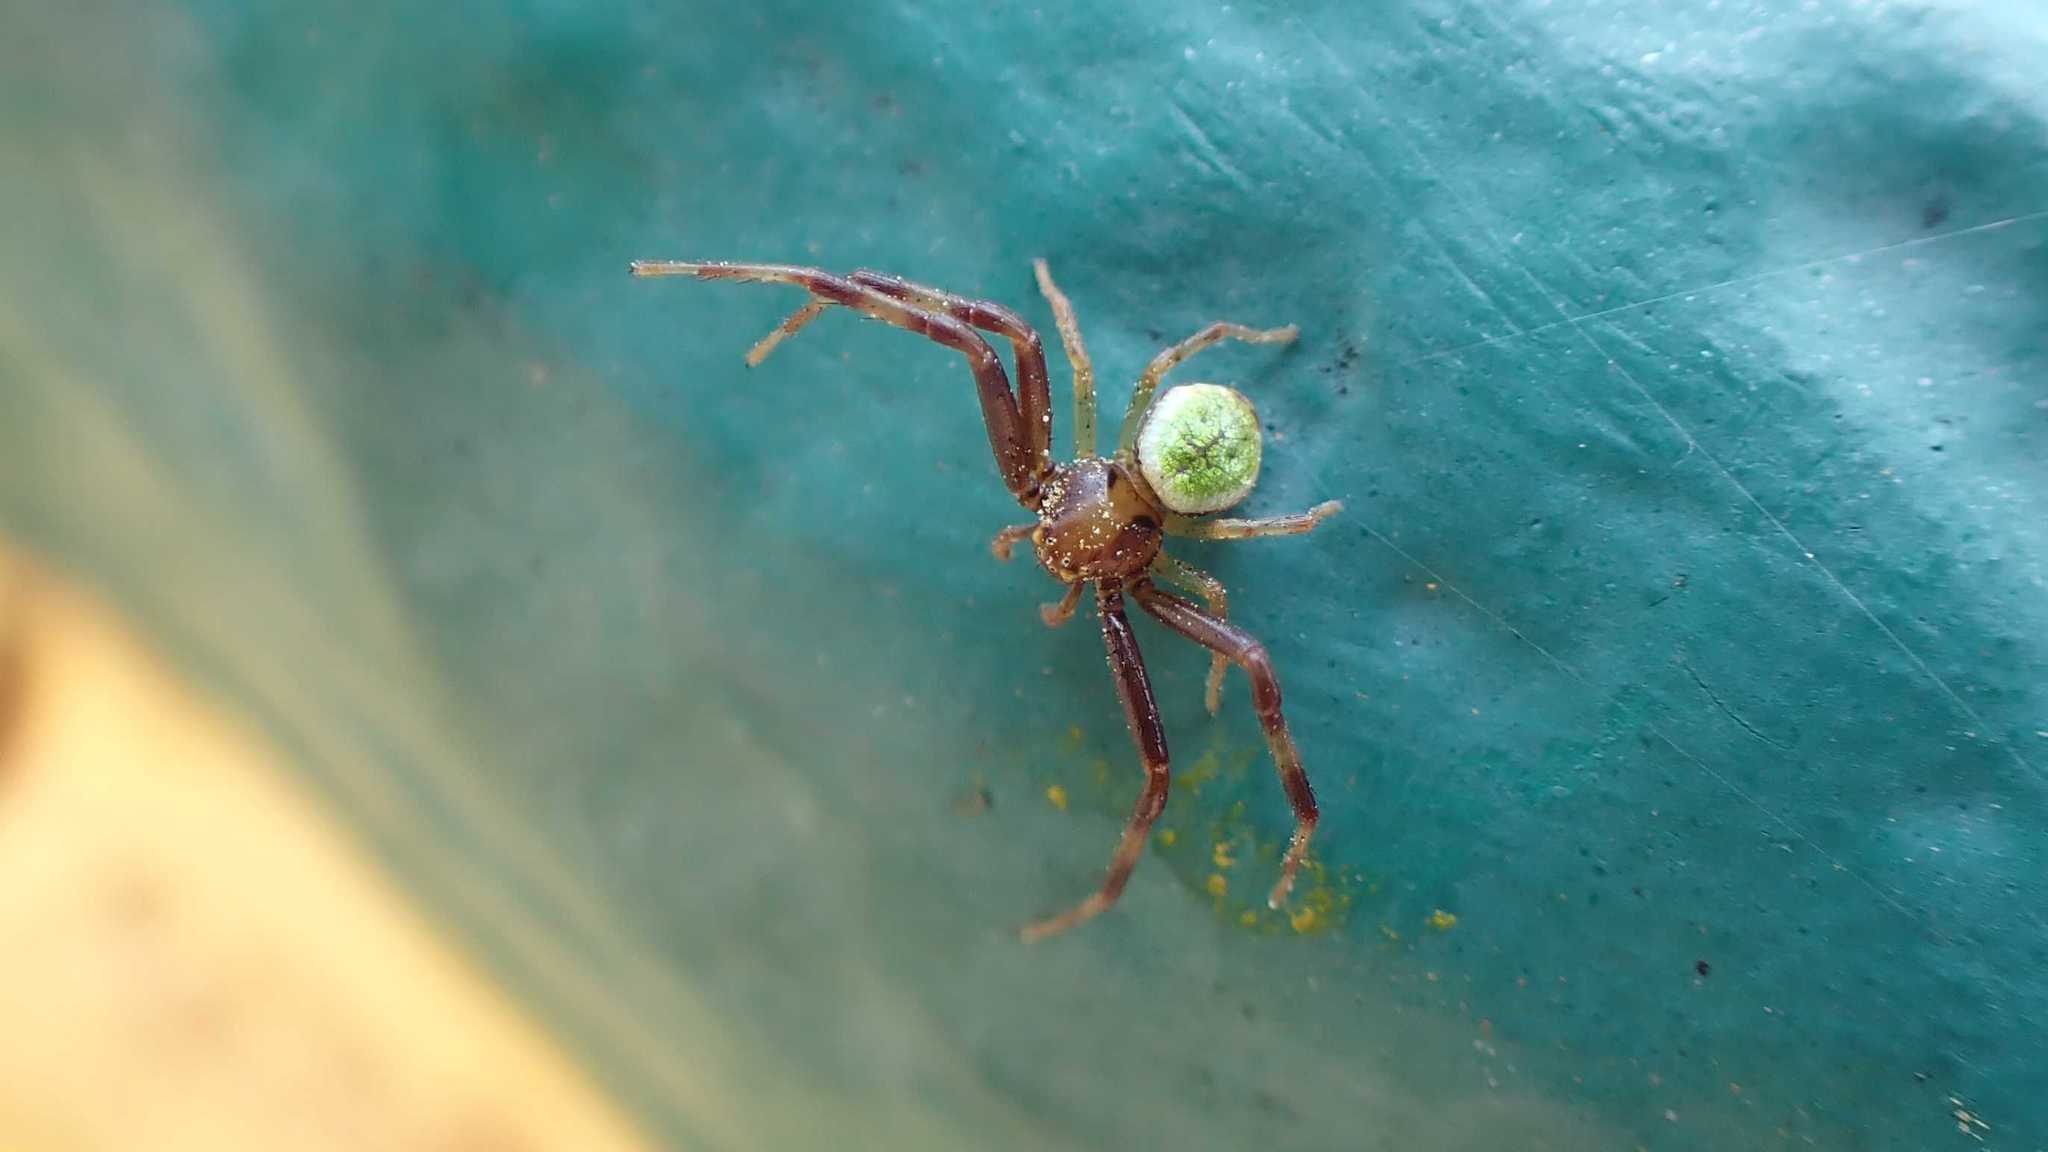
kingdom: Animalia
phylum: Arthropoda
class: Arachnida
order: Araneae
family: Thomisidae
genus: Ebrechtella
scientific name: Ebrechtella tricuspidata
